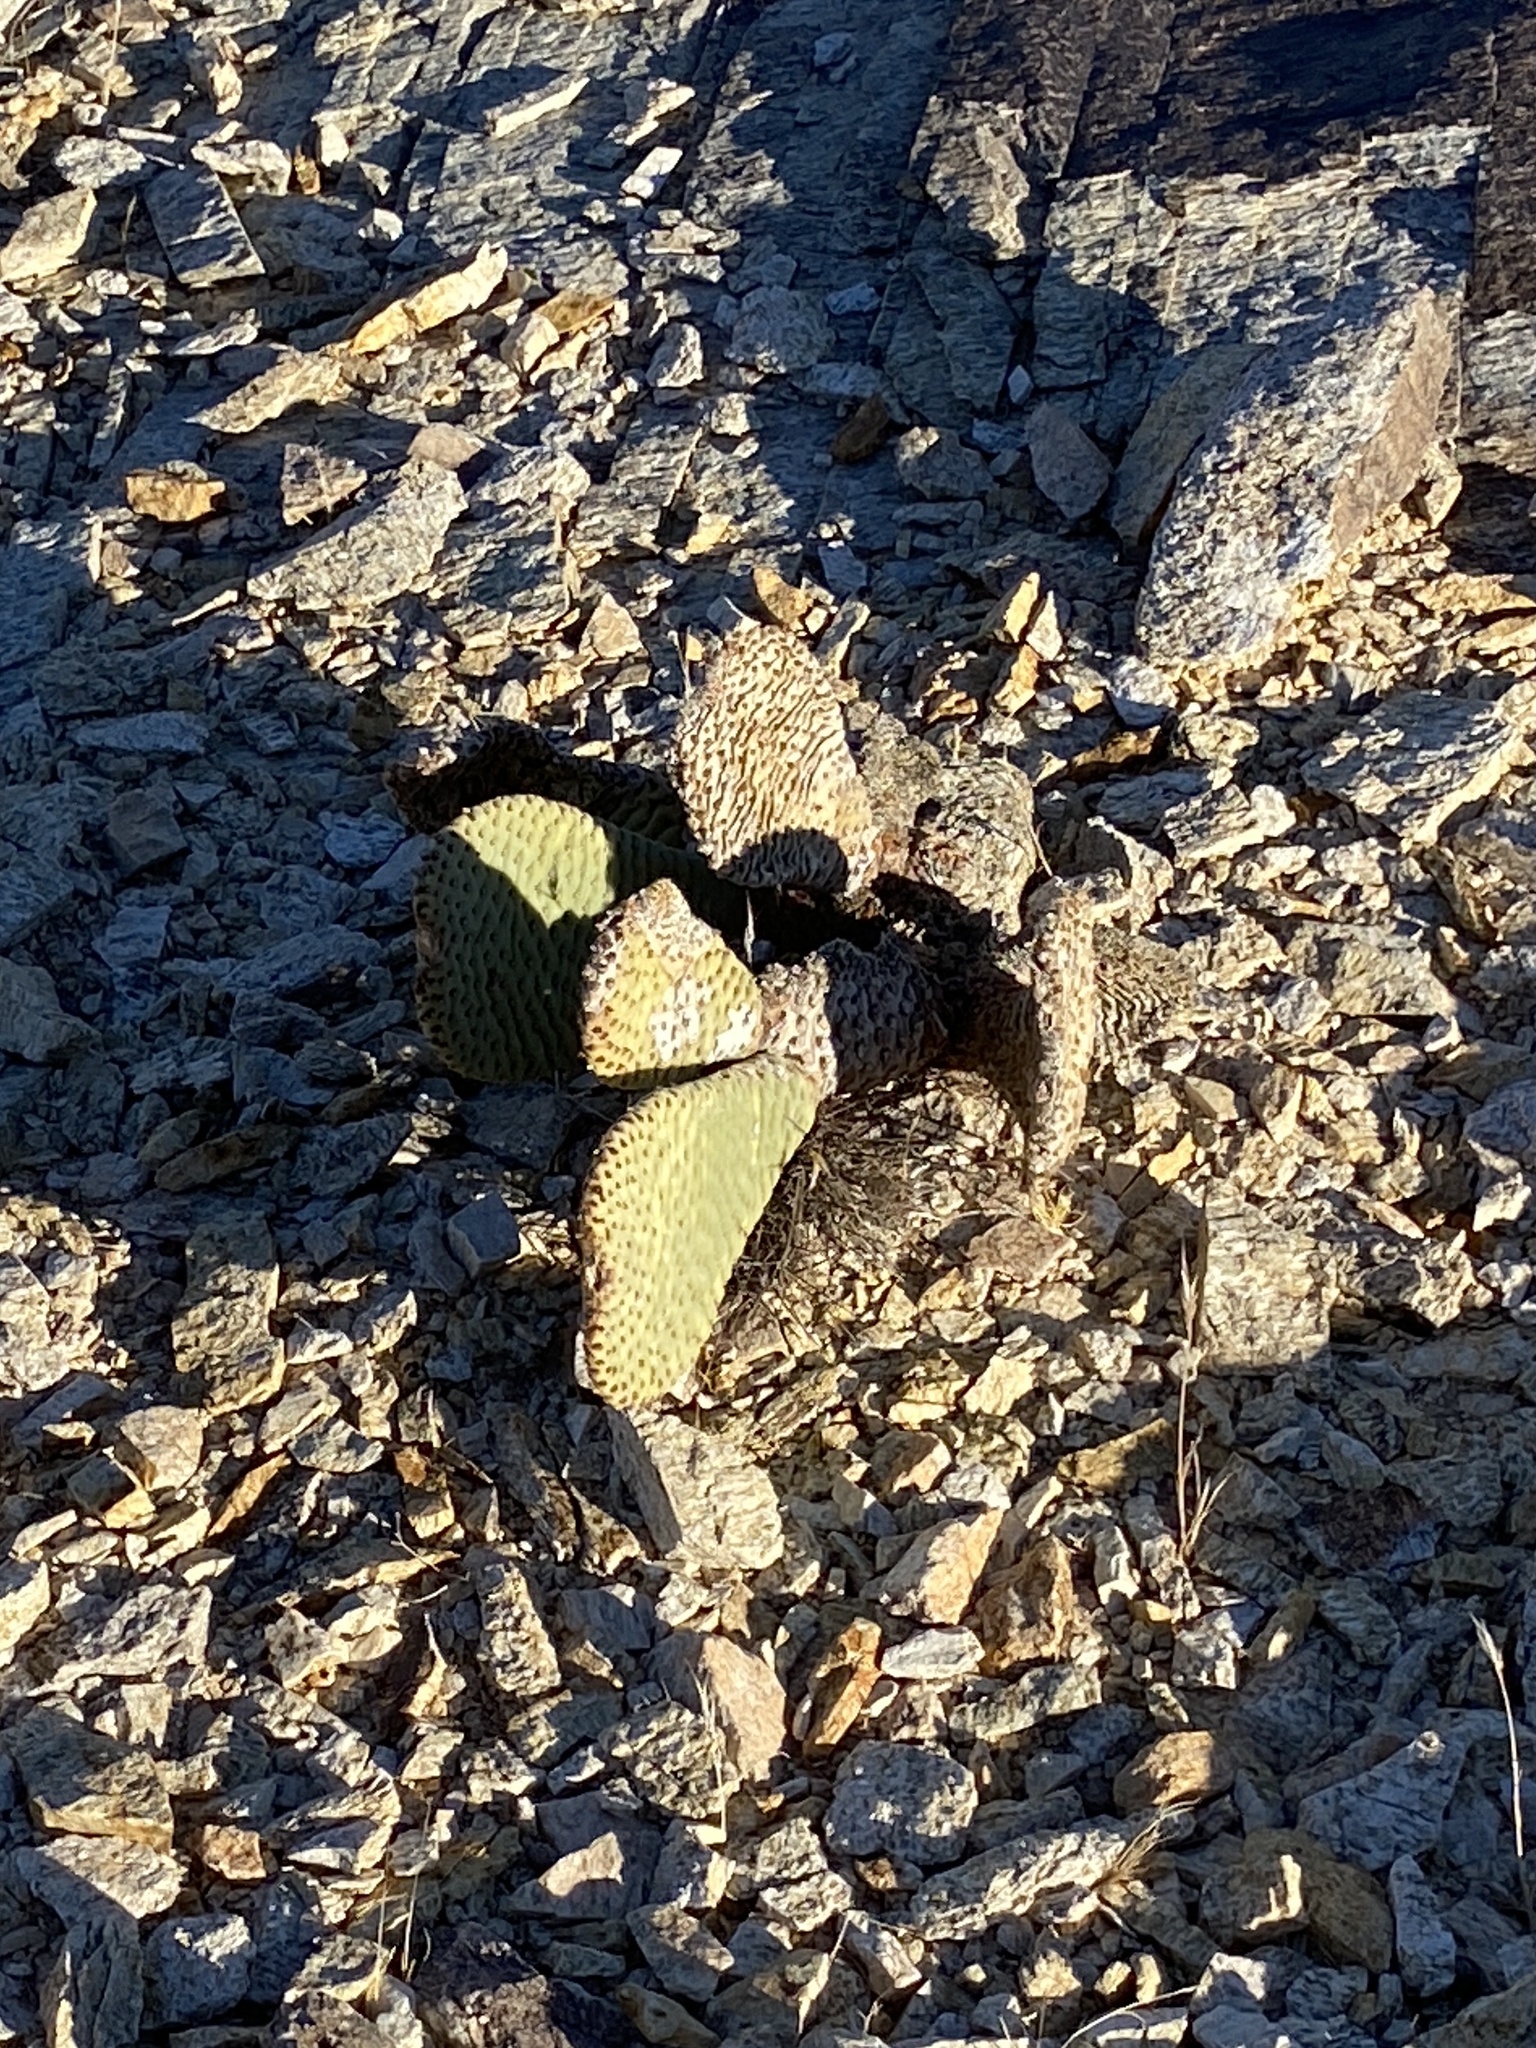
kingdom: Plantae
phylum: Tracheophyta
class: Magnoliopsida
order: Caryophyllales
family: Cactaceae
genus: Opuntia
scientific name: Opuntia basilaris
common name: Beavertail prickly-pear
